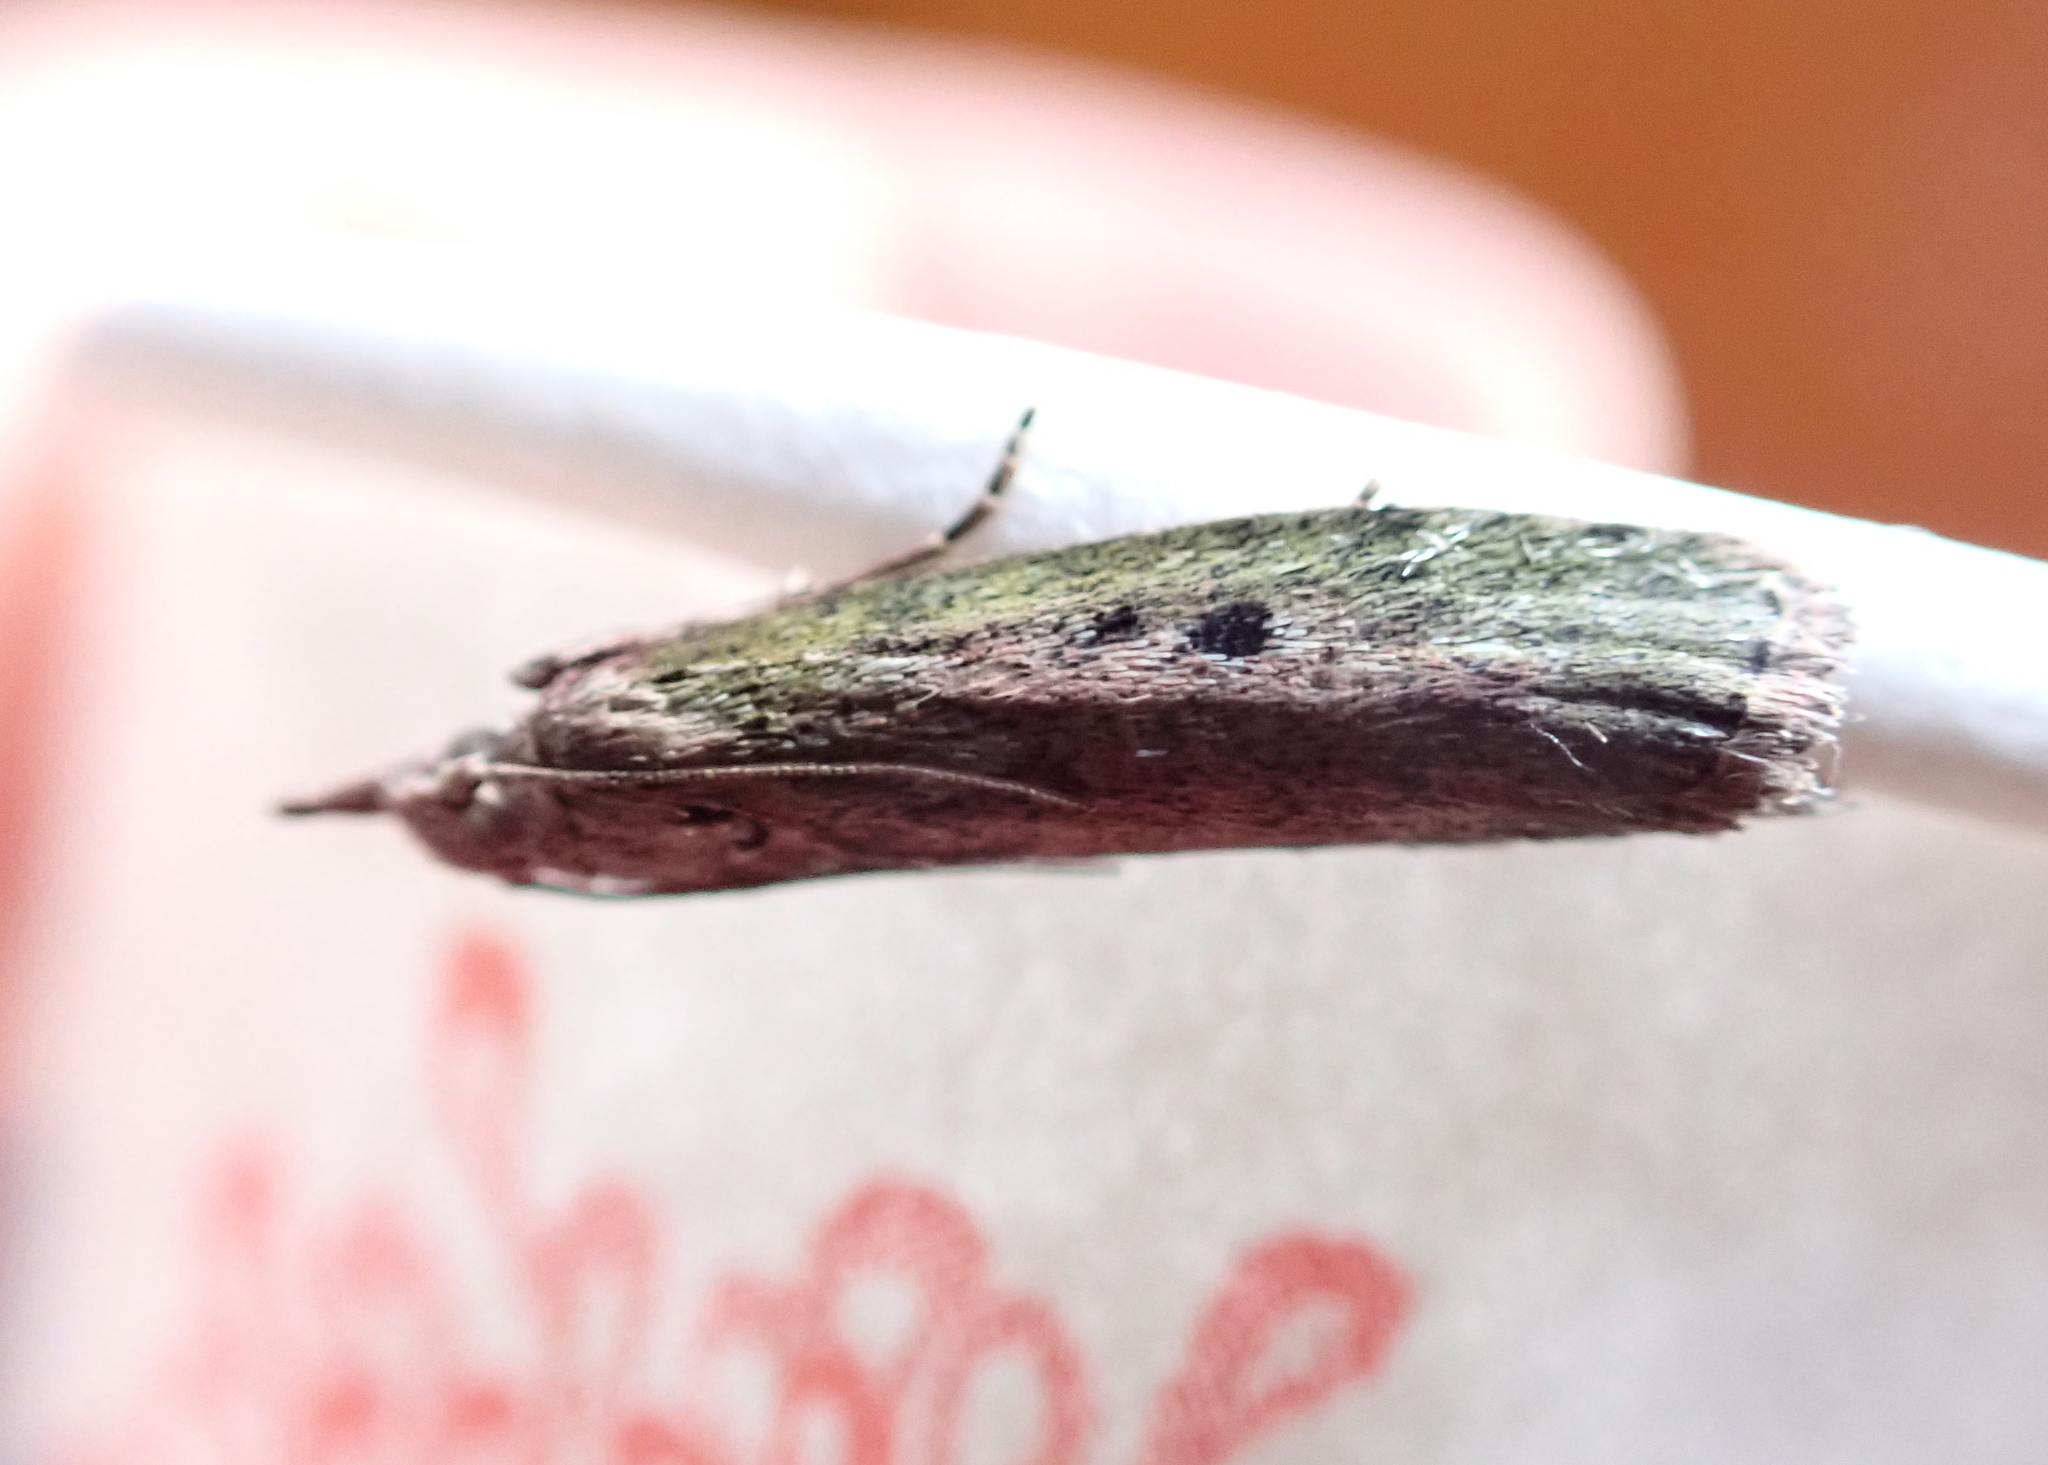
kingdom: Animalia
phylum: Arthropoda
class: Insecta
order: Lepidoptera
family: Pyralidae
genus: Aphomia
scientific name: Aphomia sociella
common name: Bee moth
